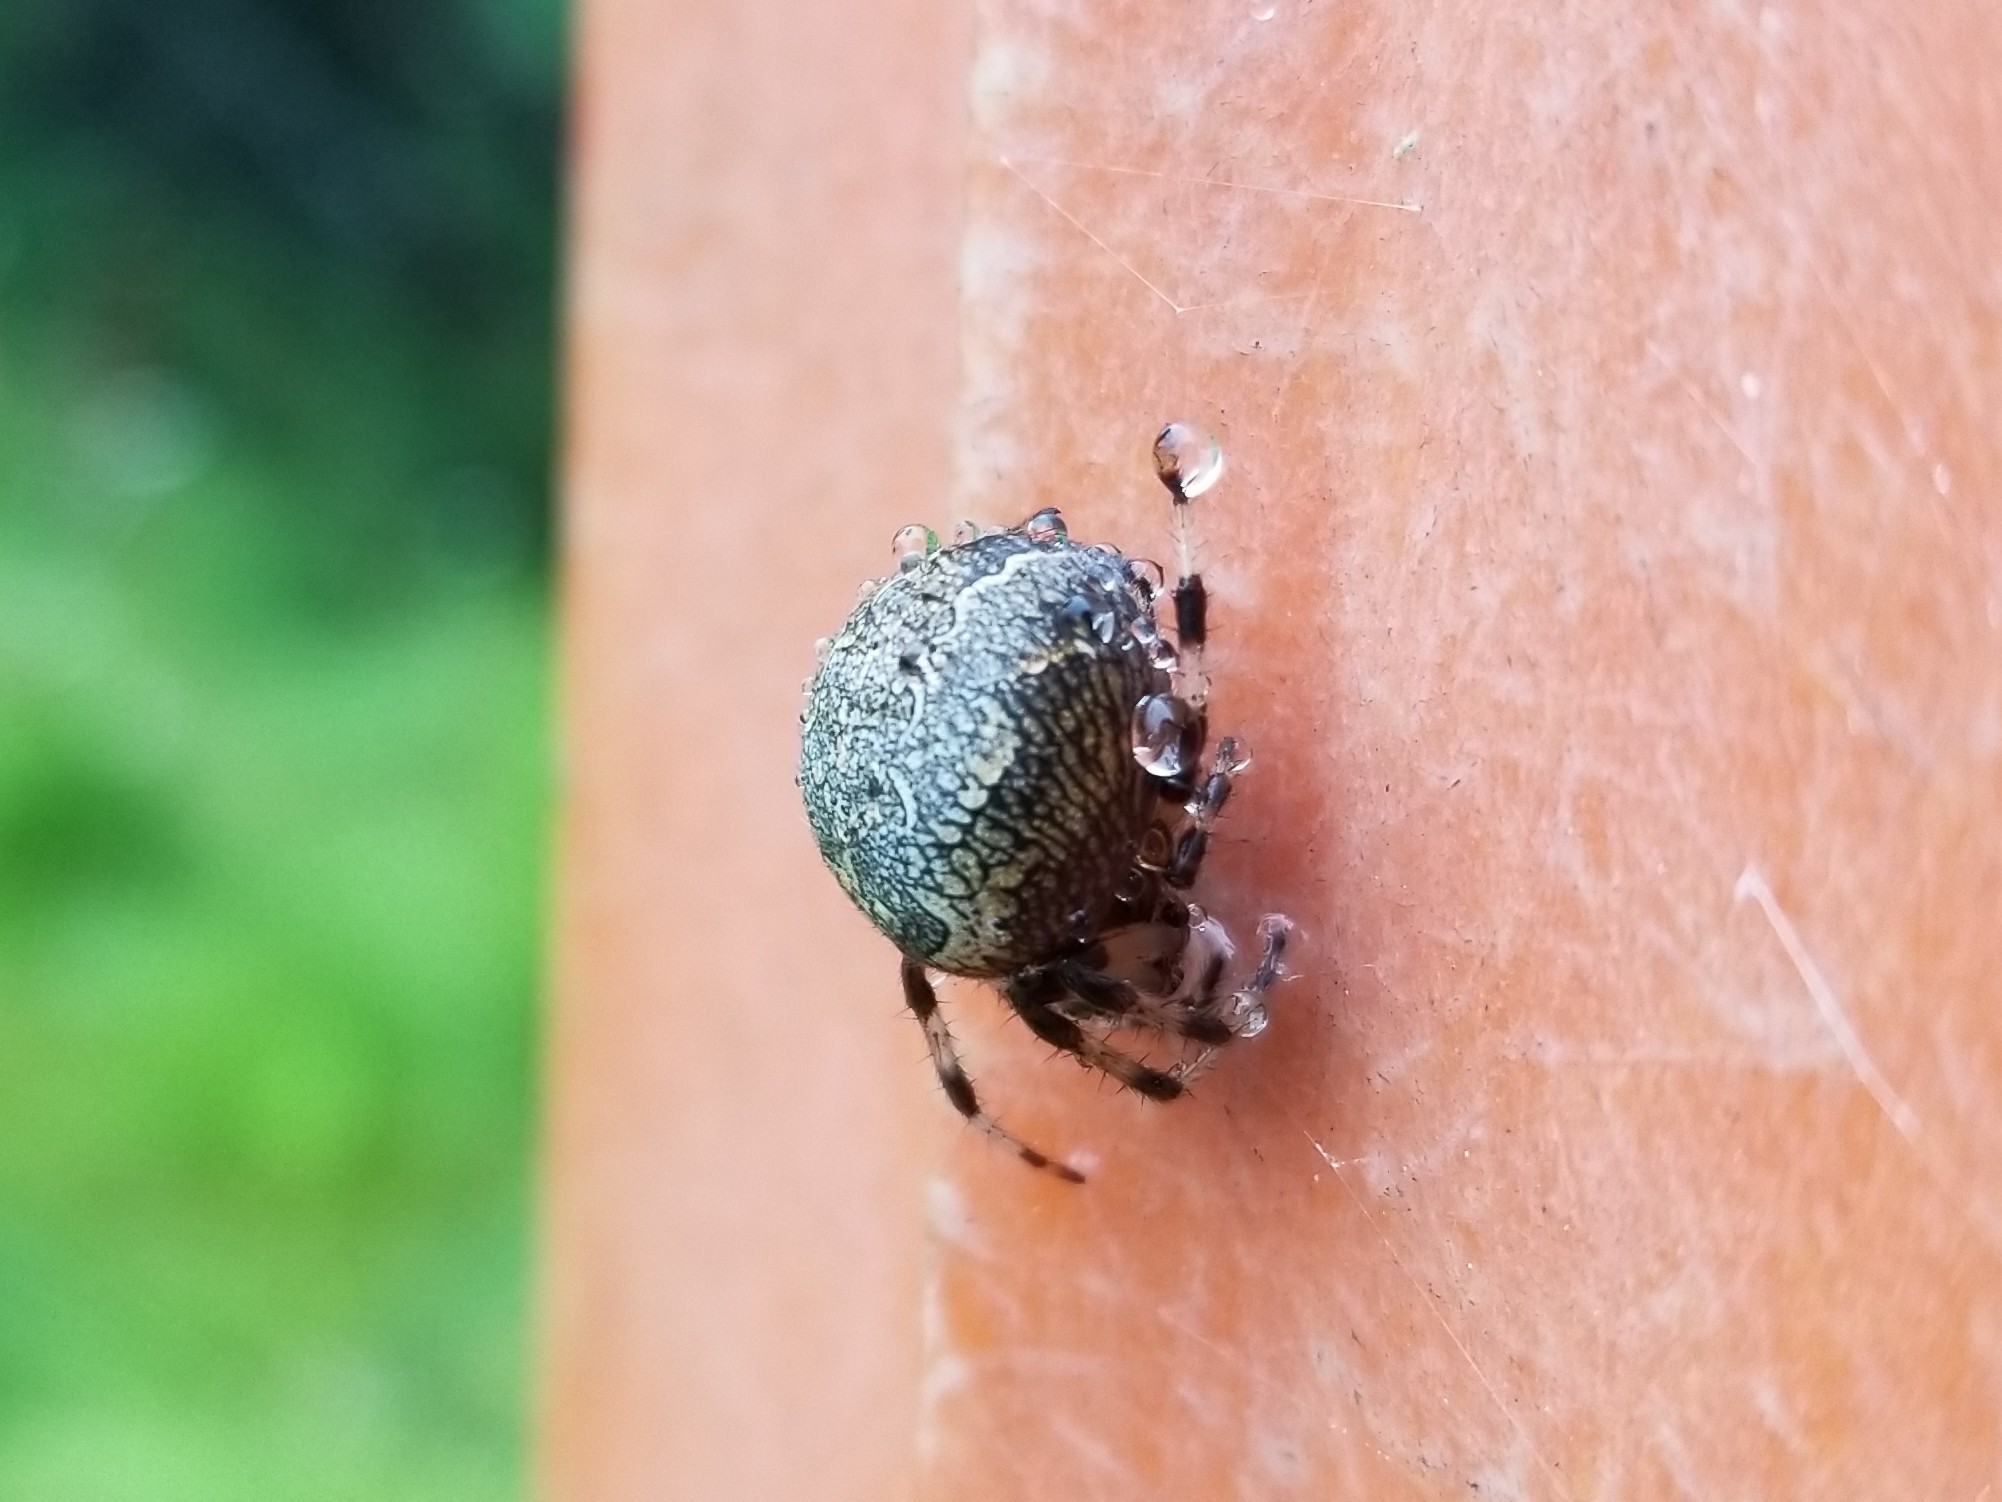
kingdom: Animalia
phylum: Arthropoda
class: Arachnida
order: Araneae
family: Araneidae
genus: Araneus
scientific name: Araneus marmoreus
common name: Marbled orbweaver
